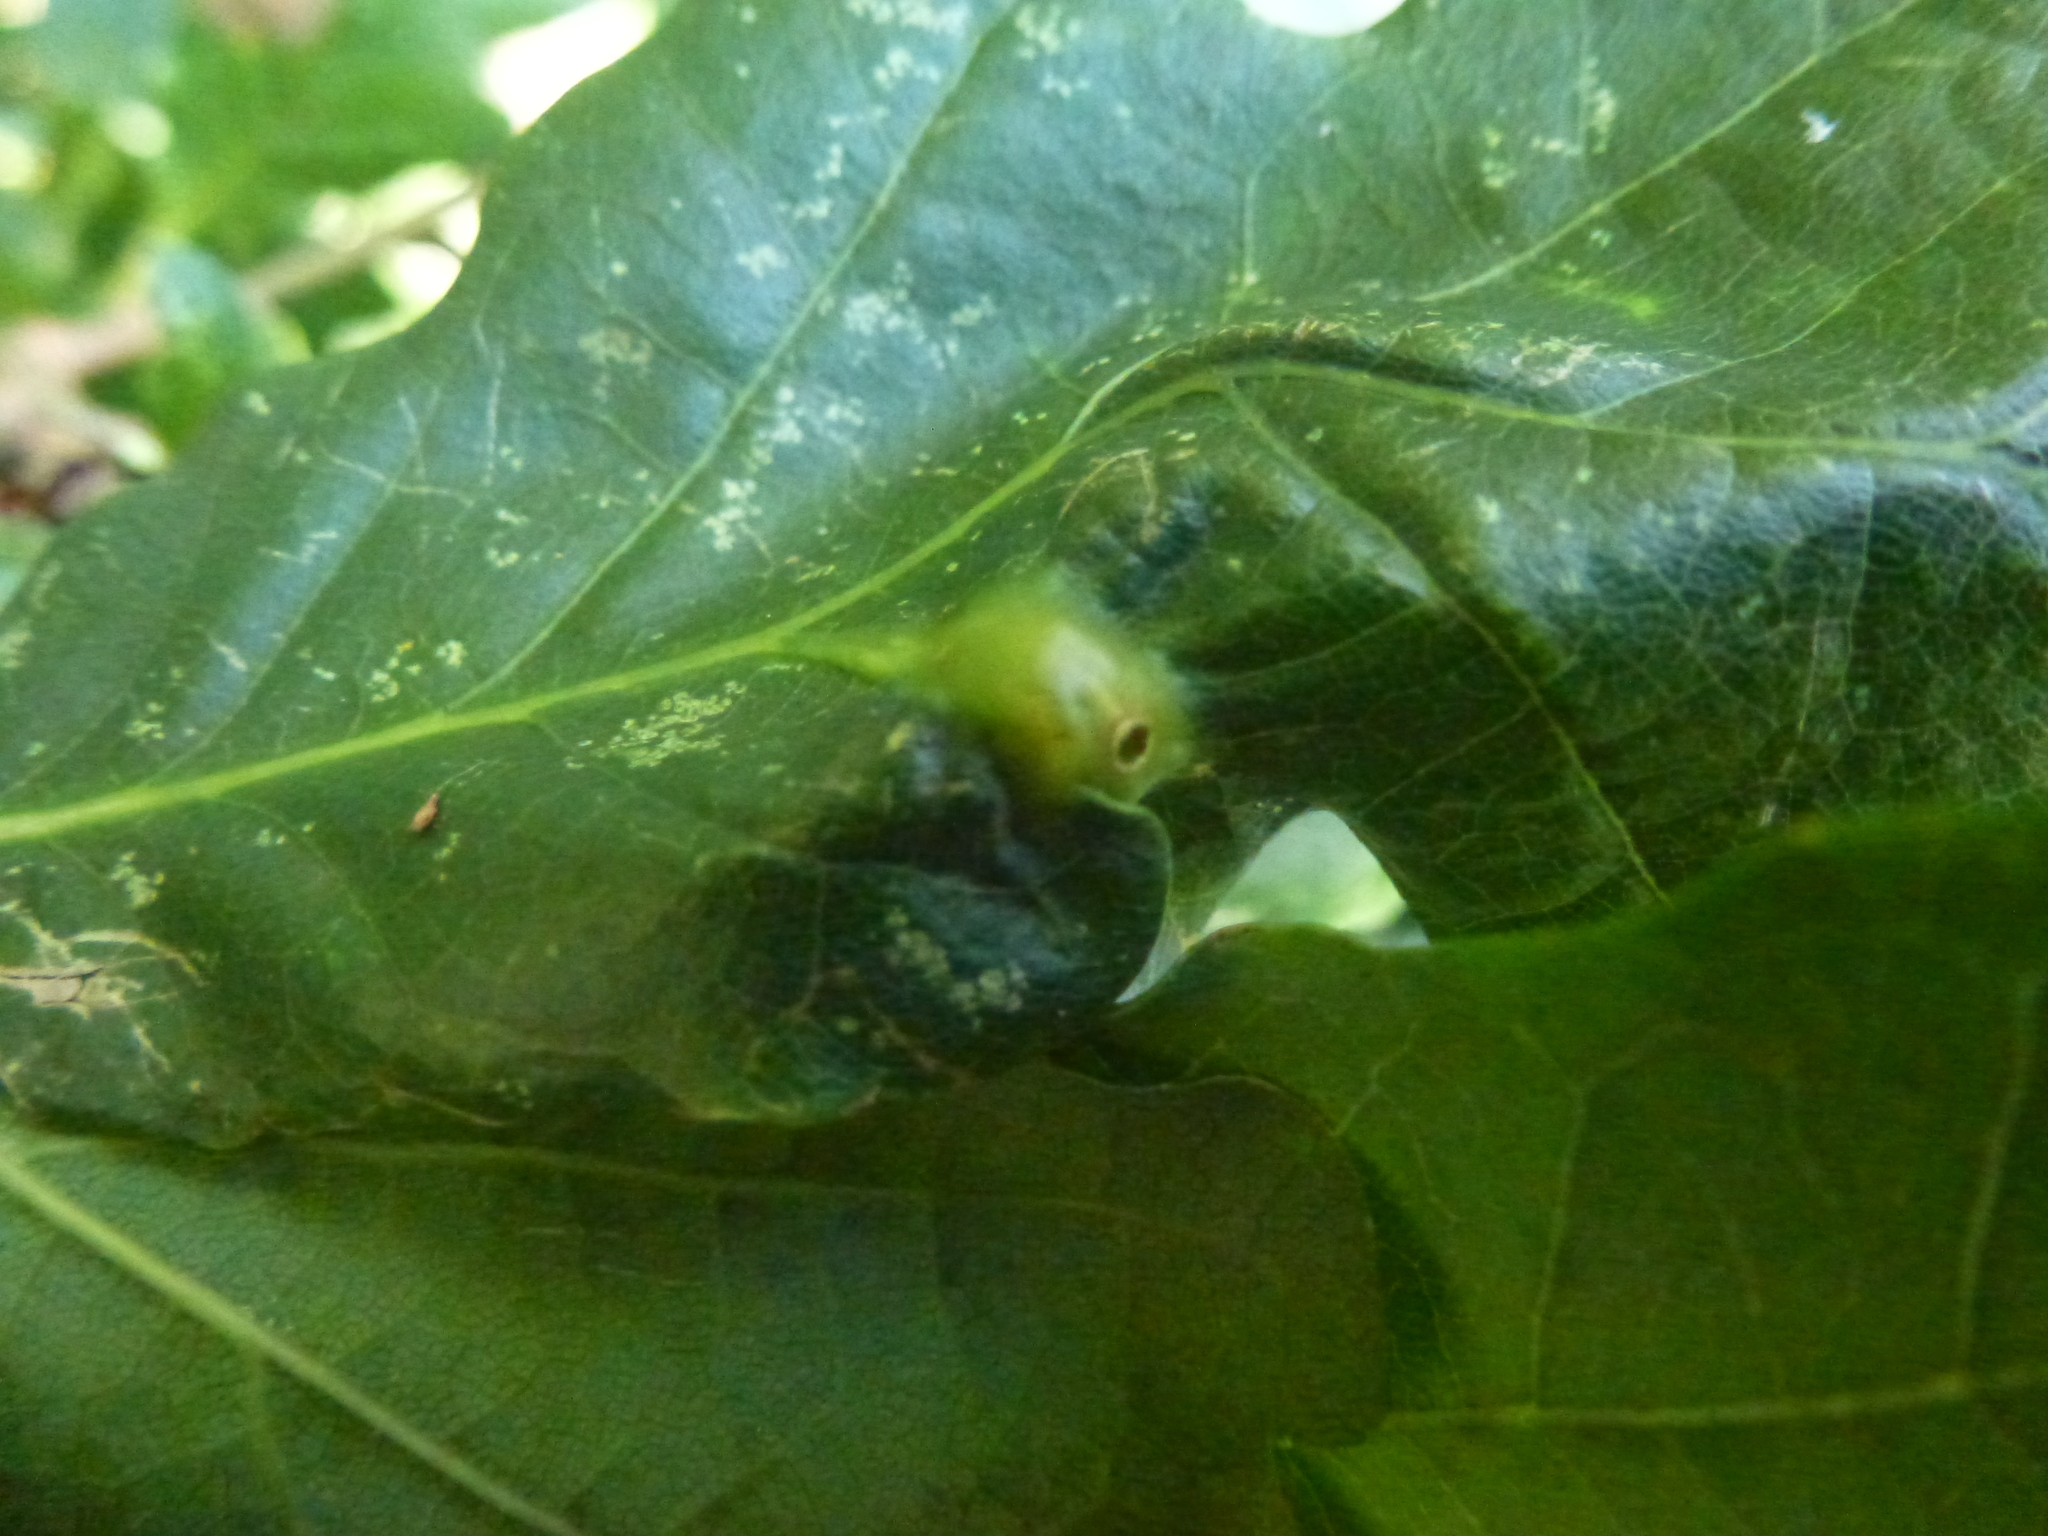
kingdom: Animalia
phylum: Arthropoda
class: Insecta
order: Hymenoptera
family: Cynipidae
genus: Andricus
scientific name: Andricus curvator
